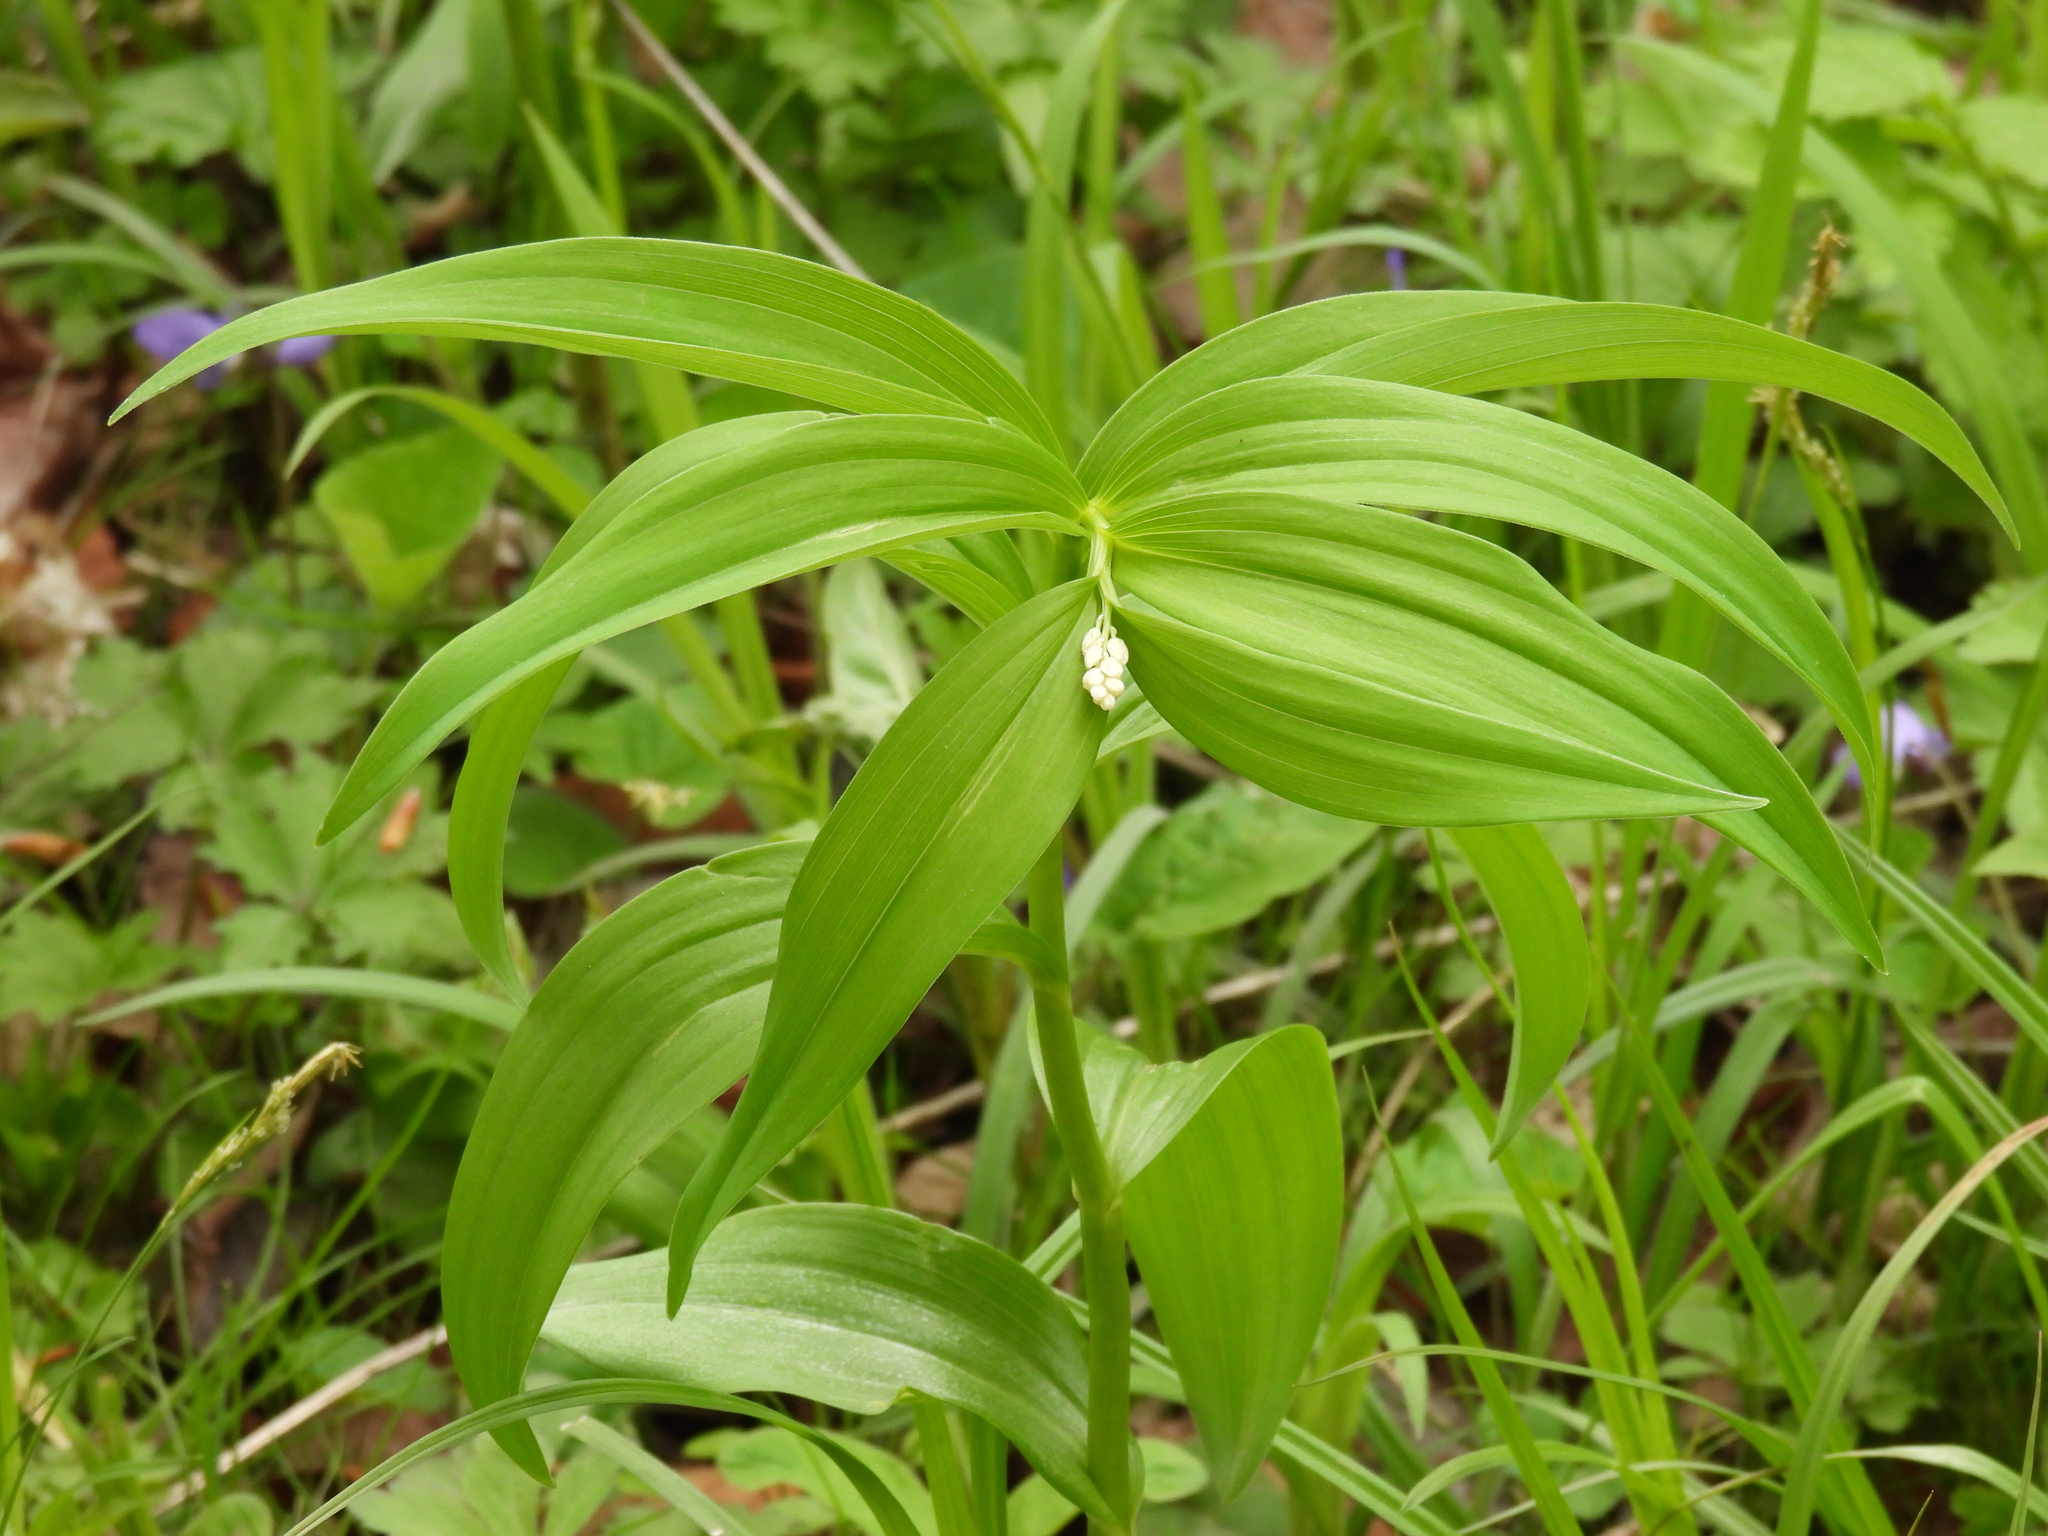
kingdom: Plantae
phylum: Tracheophyta
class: Liliopsida
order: Asparagales
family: Asparagaceae
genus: Maianthemum
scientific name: Maianthemum stellatum
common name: Little false solomon's seal
